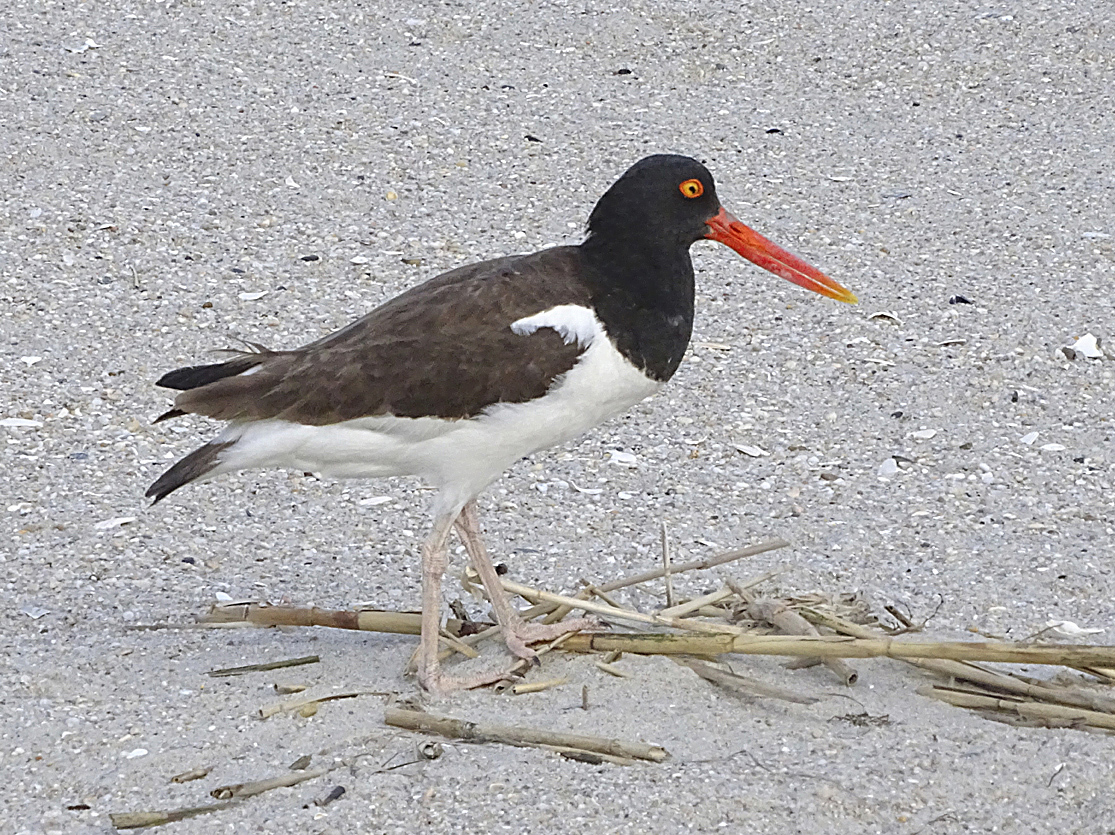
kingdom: Animalia
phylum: Chordata
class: Aves
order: Charadriiformes
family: Haematopodidae
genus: Haematopus
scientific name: Haematopus palliatus
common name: American oystercatcher
